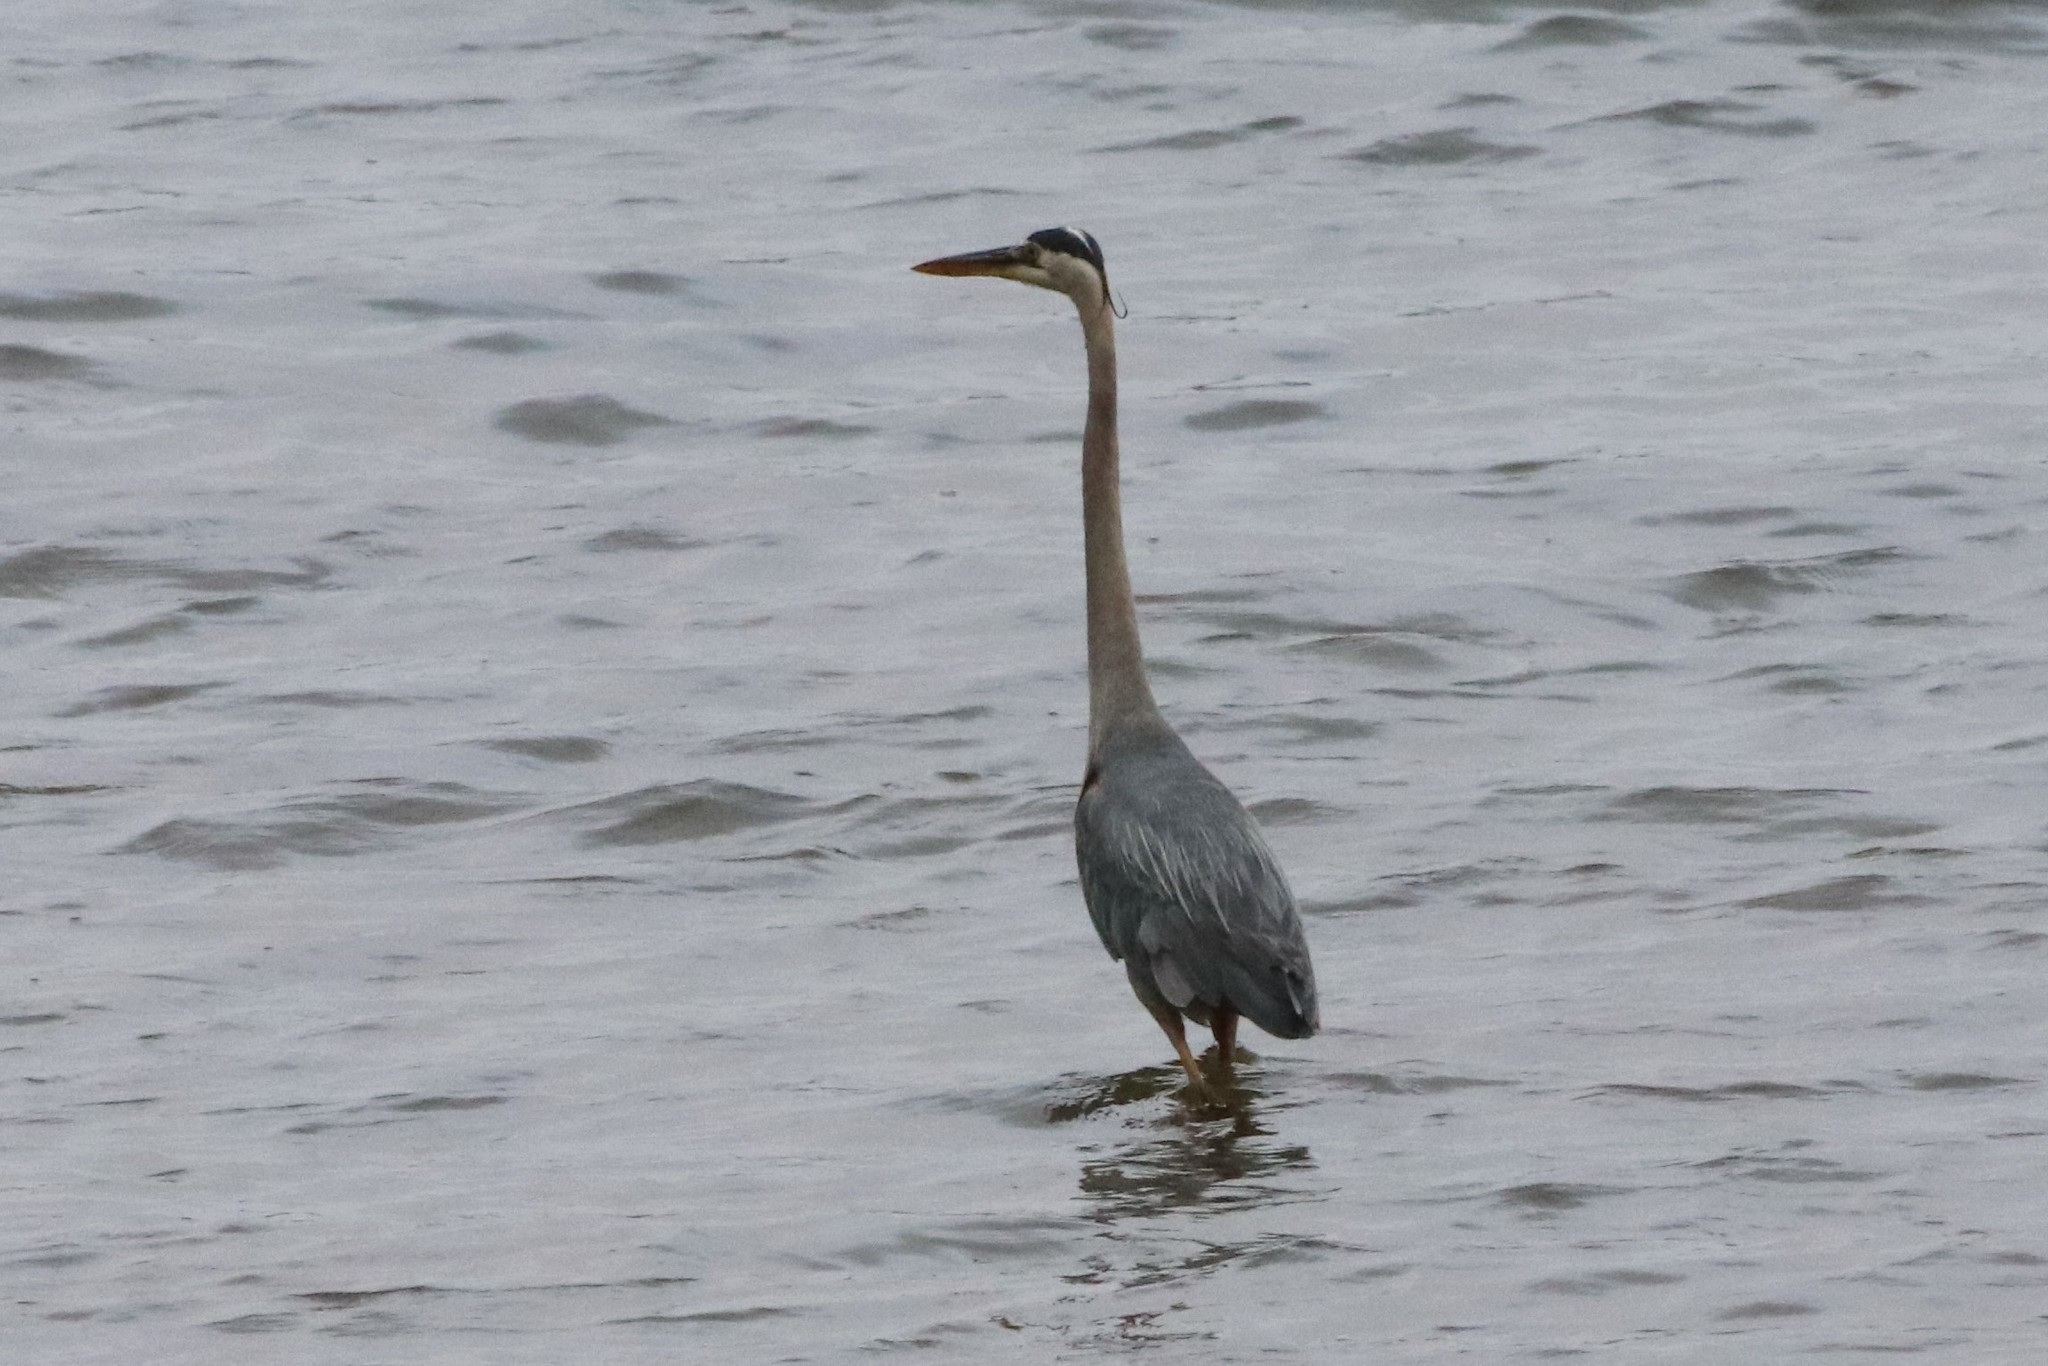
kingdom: Animalia
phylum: Chordata
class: Aves
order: Pelecaniformes
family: Ardeidae
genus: Ardea
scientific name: Ardea herodias
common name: Great blue heron
